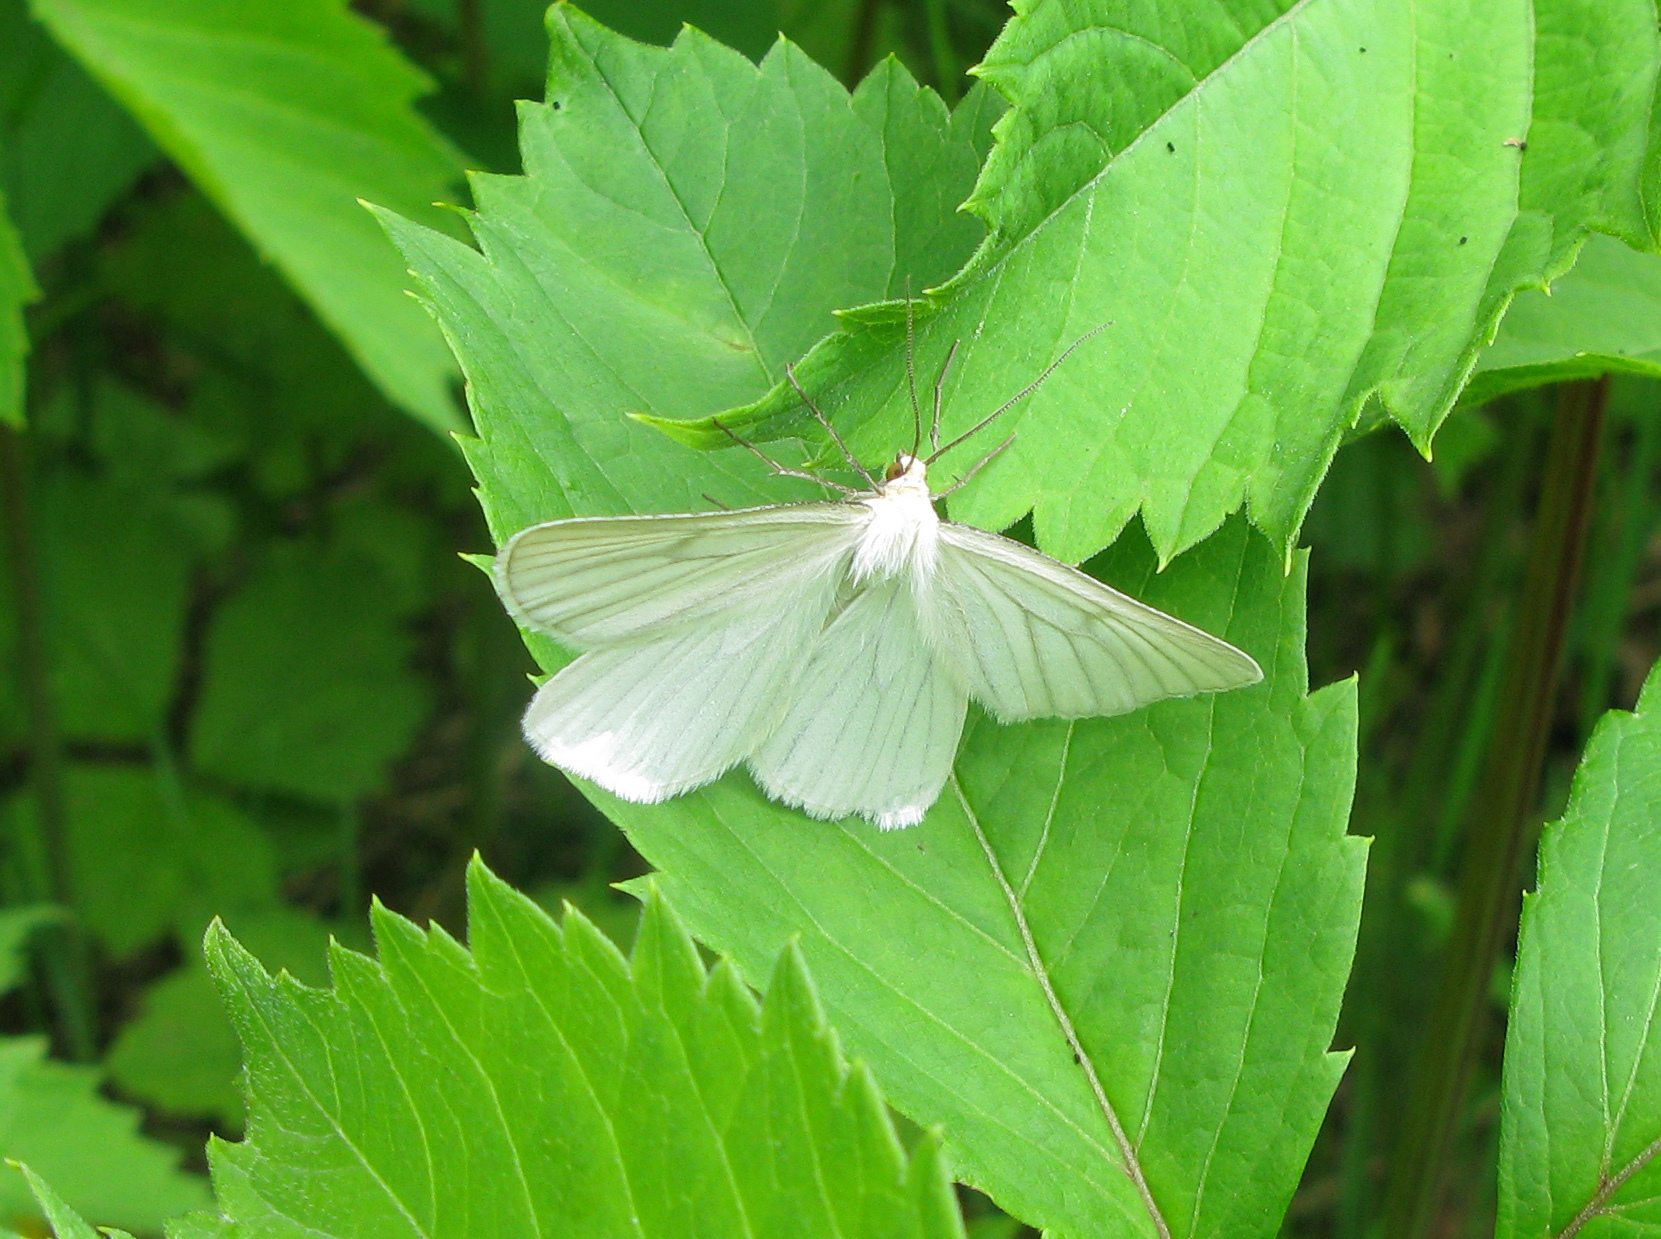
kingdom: Animalia
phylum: Arthropoda
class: Insecta
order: Lepidoptera
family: Geometridae
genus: Siona
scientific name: Siona lineata
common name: Black-veined moth
